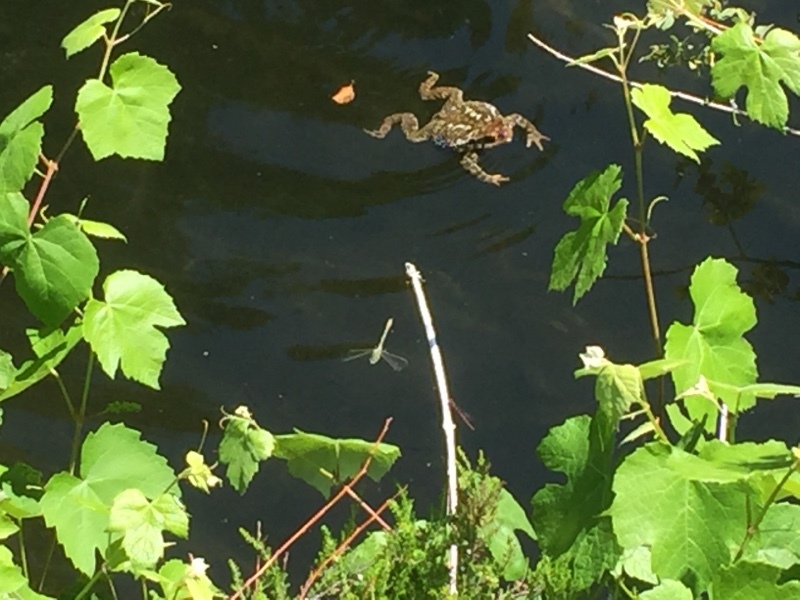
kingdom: Animalia
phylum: Chordata
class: Amphibia
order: Anura
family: Bufonidae
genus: Bufo
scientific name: Bufo spinosus
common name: Western common toad
